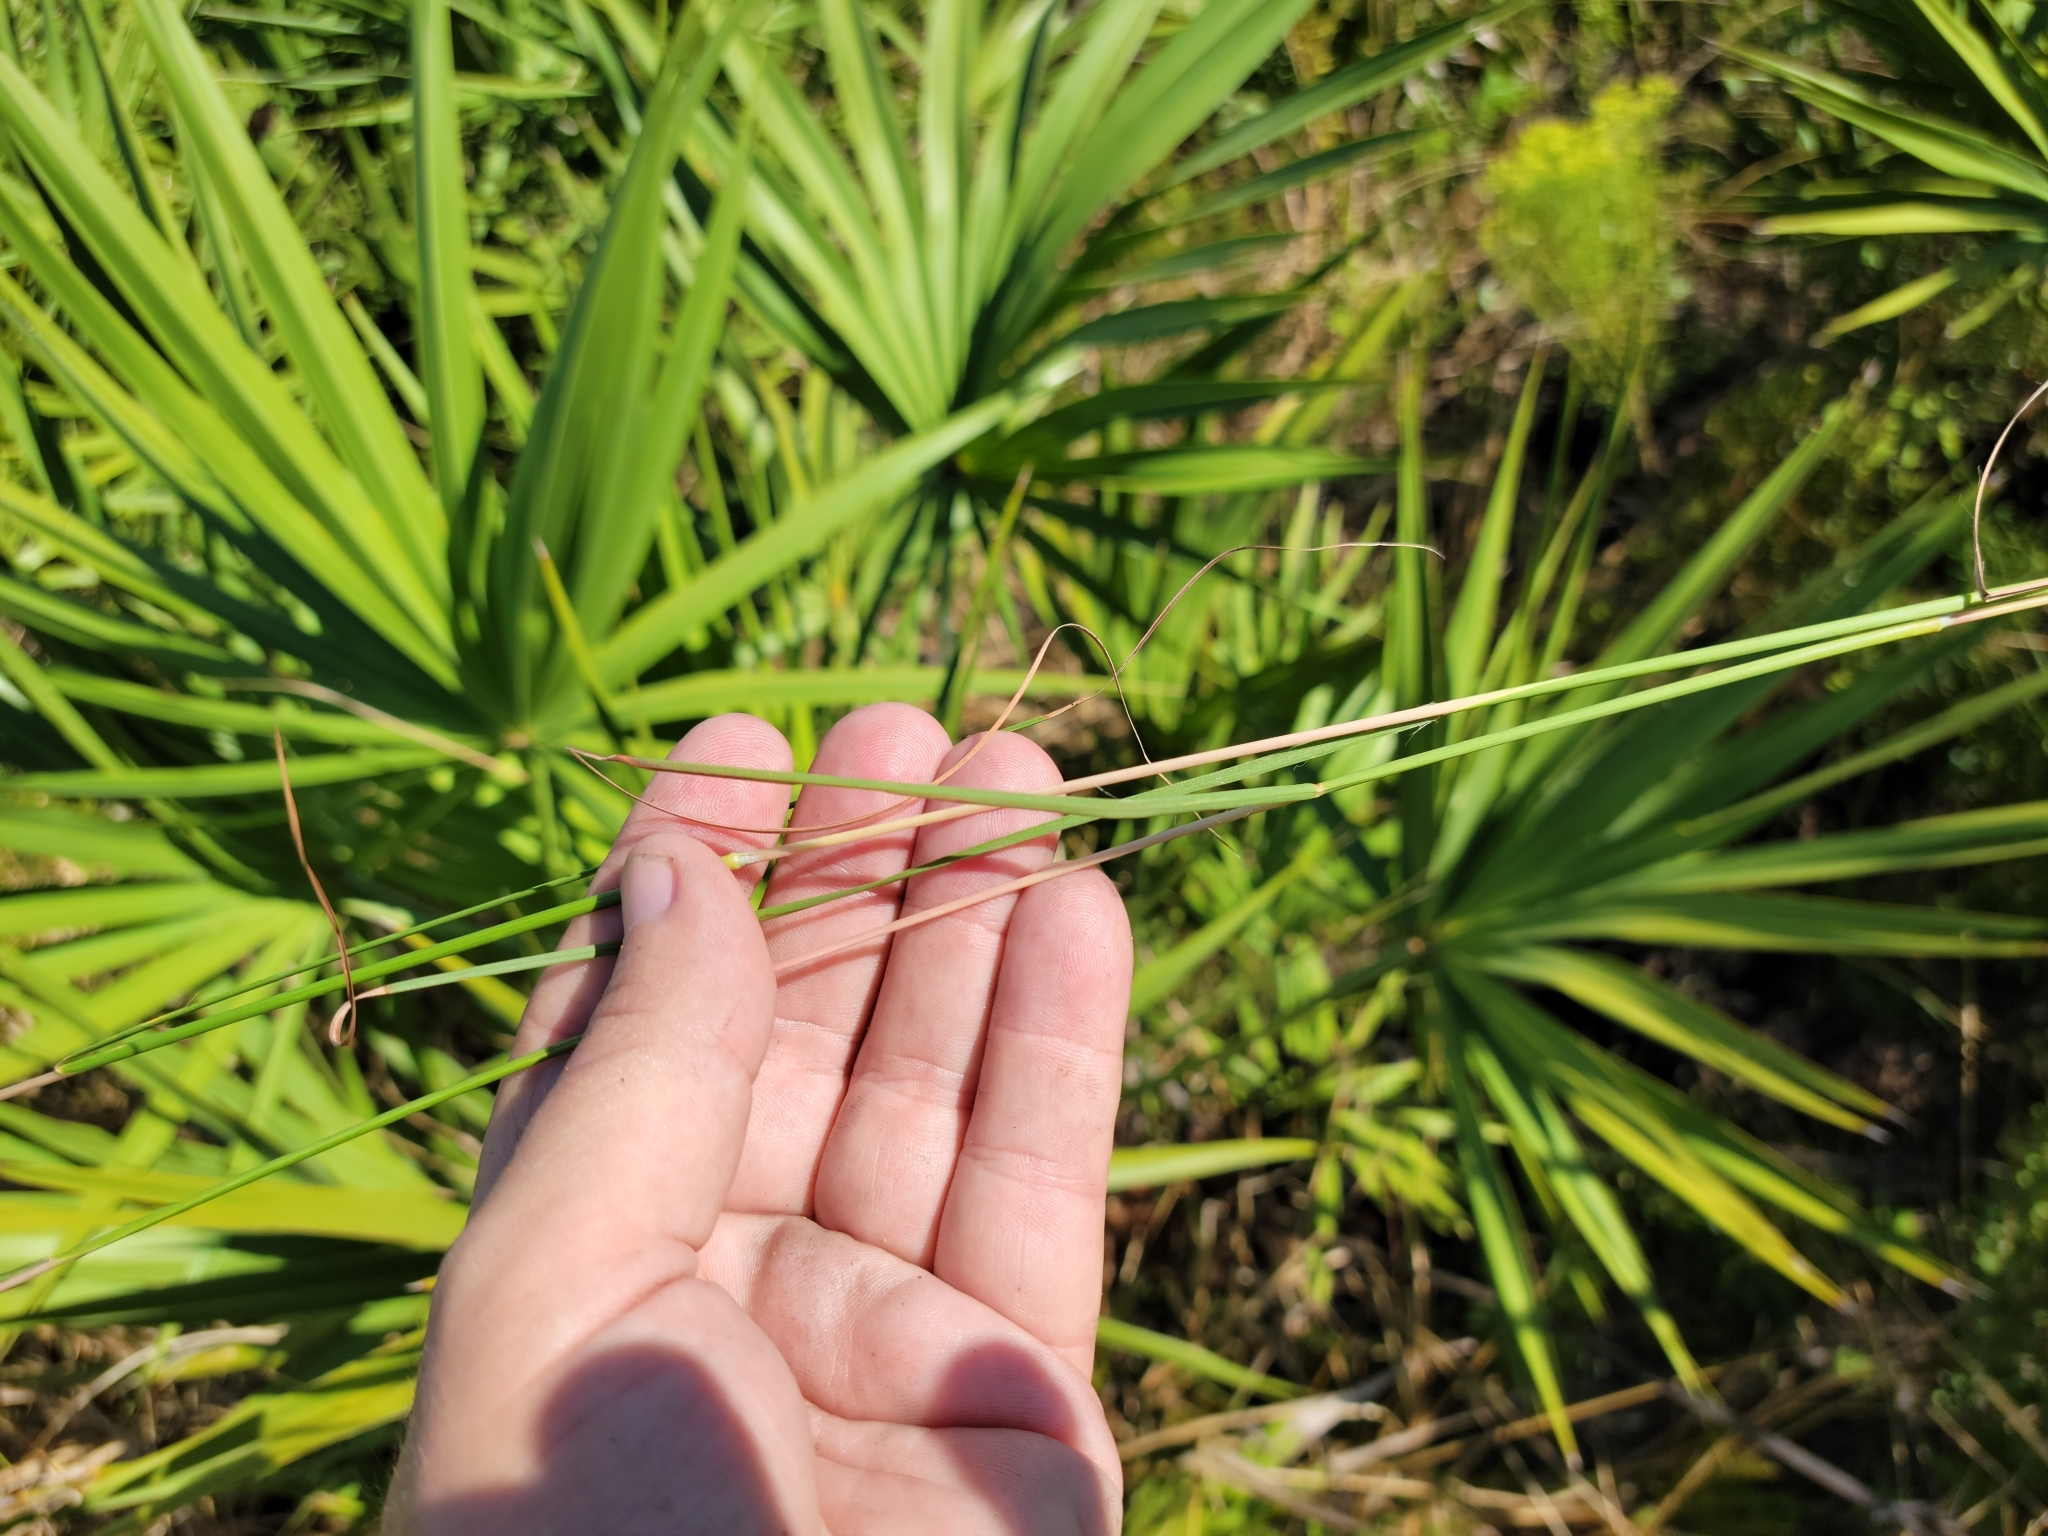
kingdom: Plantae
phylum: Tracheophyta
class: Liliopsida
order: Poales
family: Poaceae
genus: Andropogon
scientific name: Andropogon gyrans
